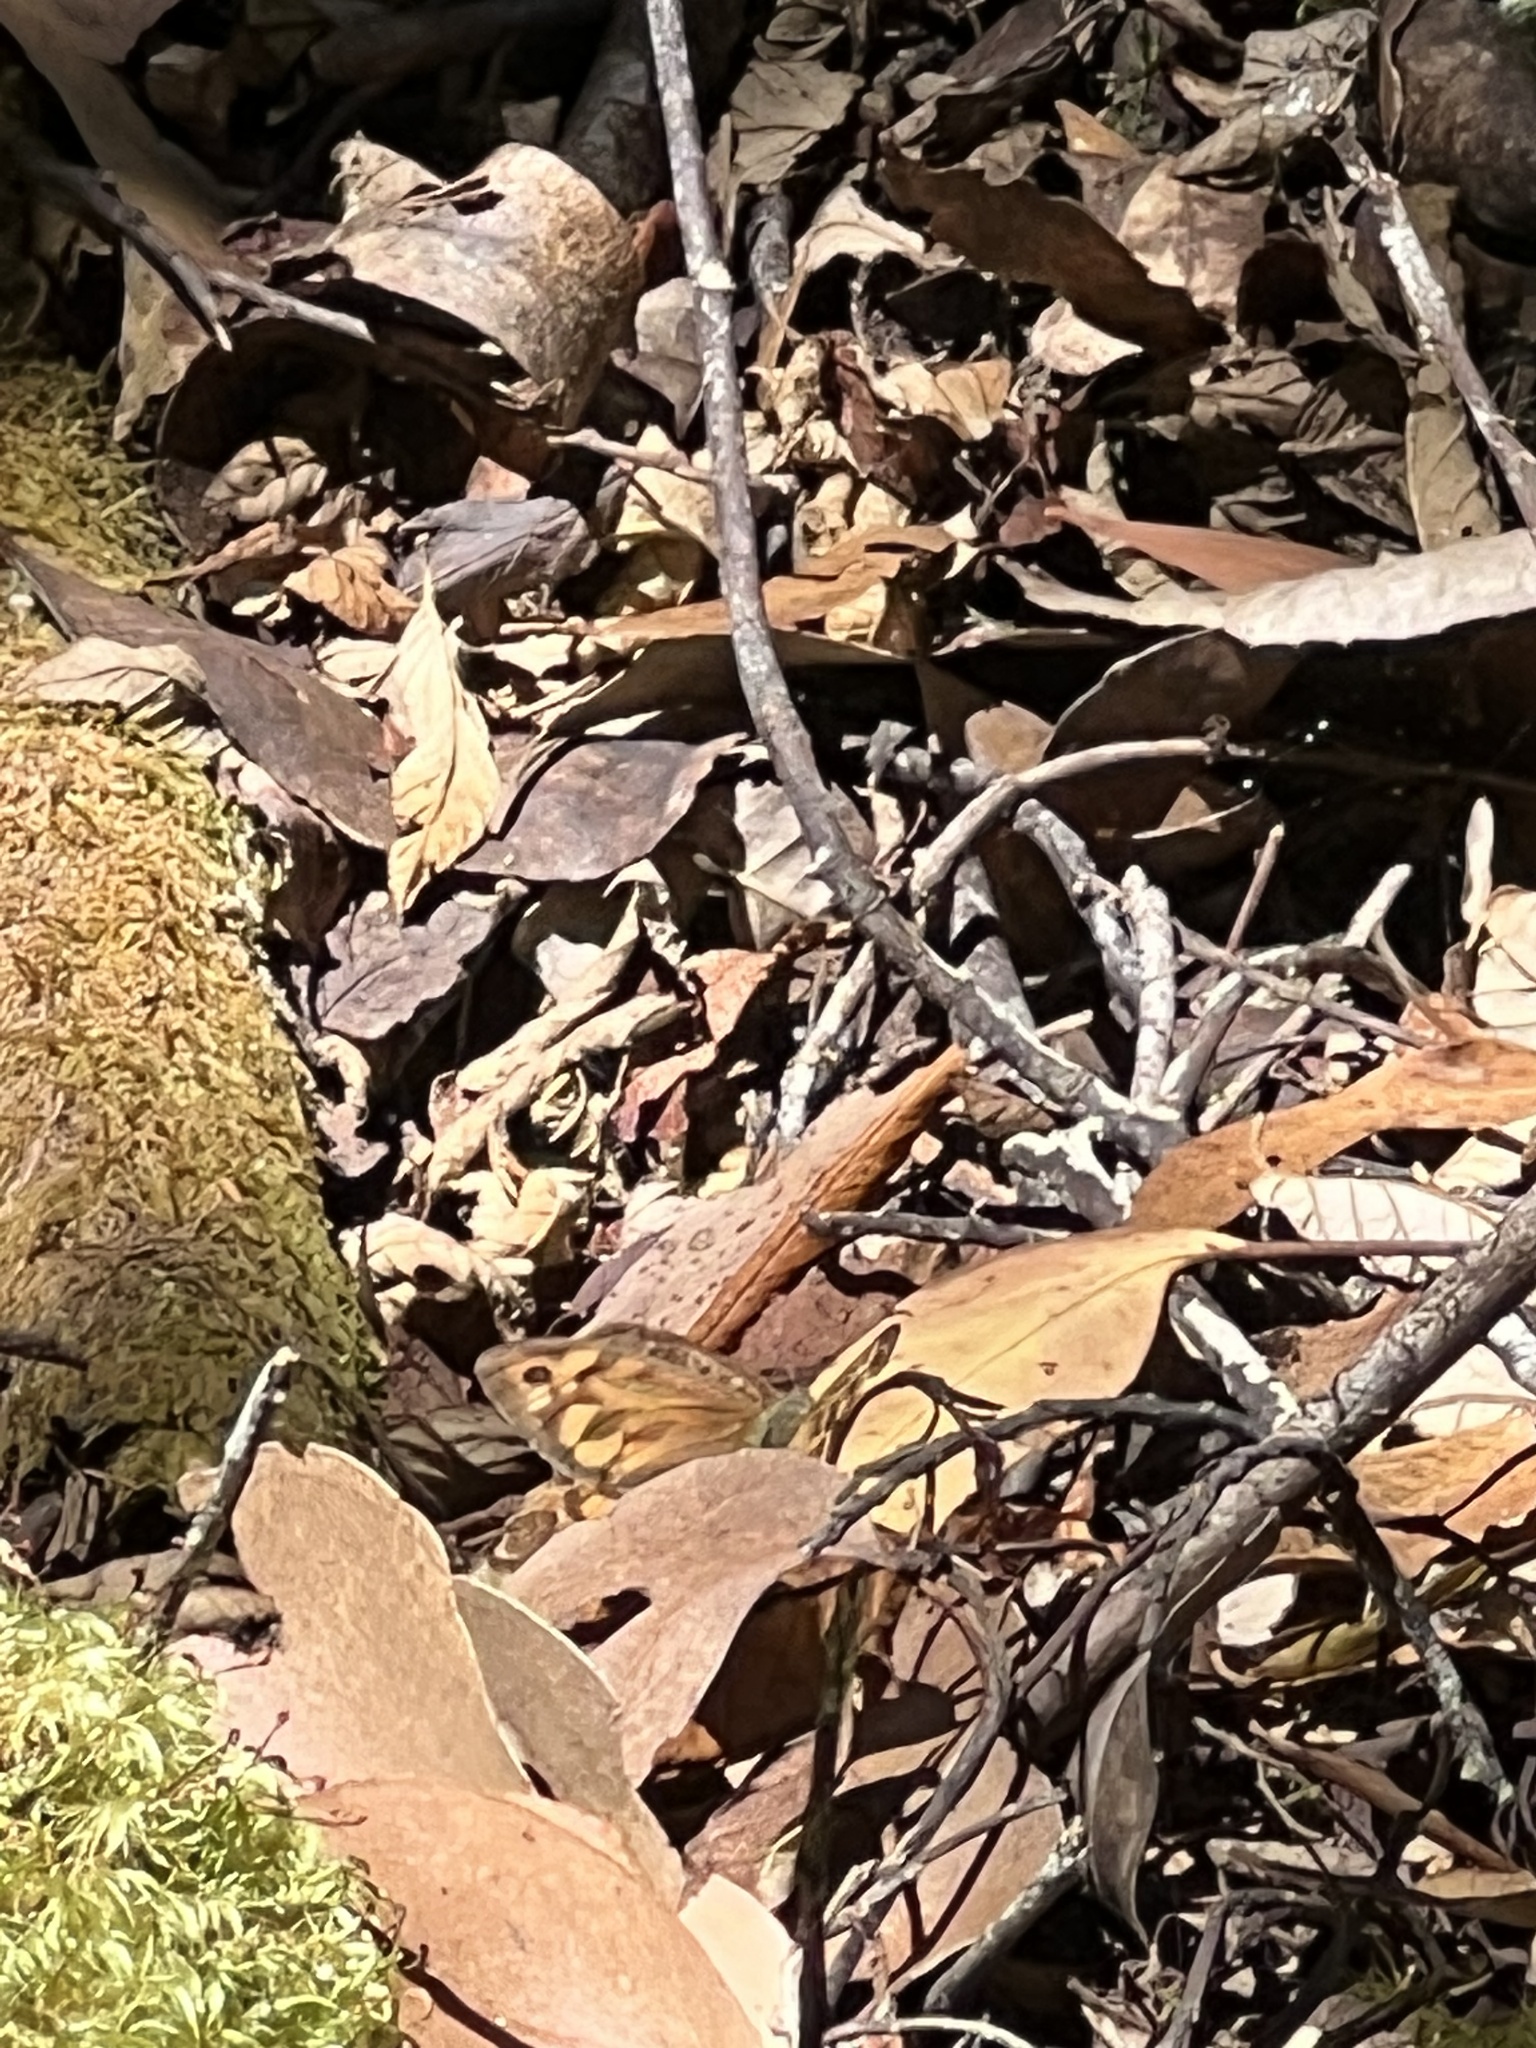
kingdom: Animalia
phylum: Arthropoda
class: Insecta
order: Lepidoptera
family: Nymphalidae
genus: Heteronympha
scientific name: Heteronympha merope
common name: Common brown
